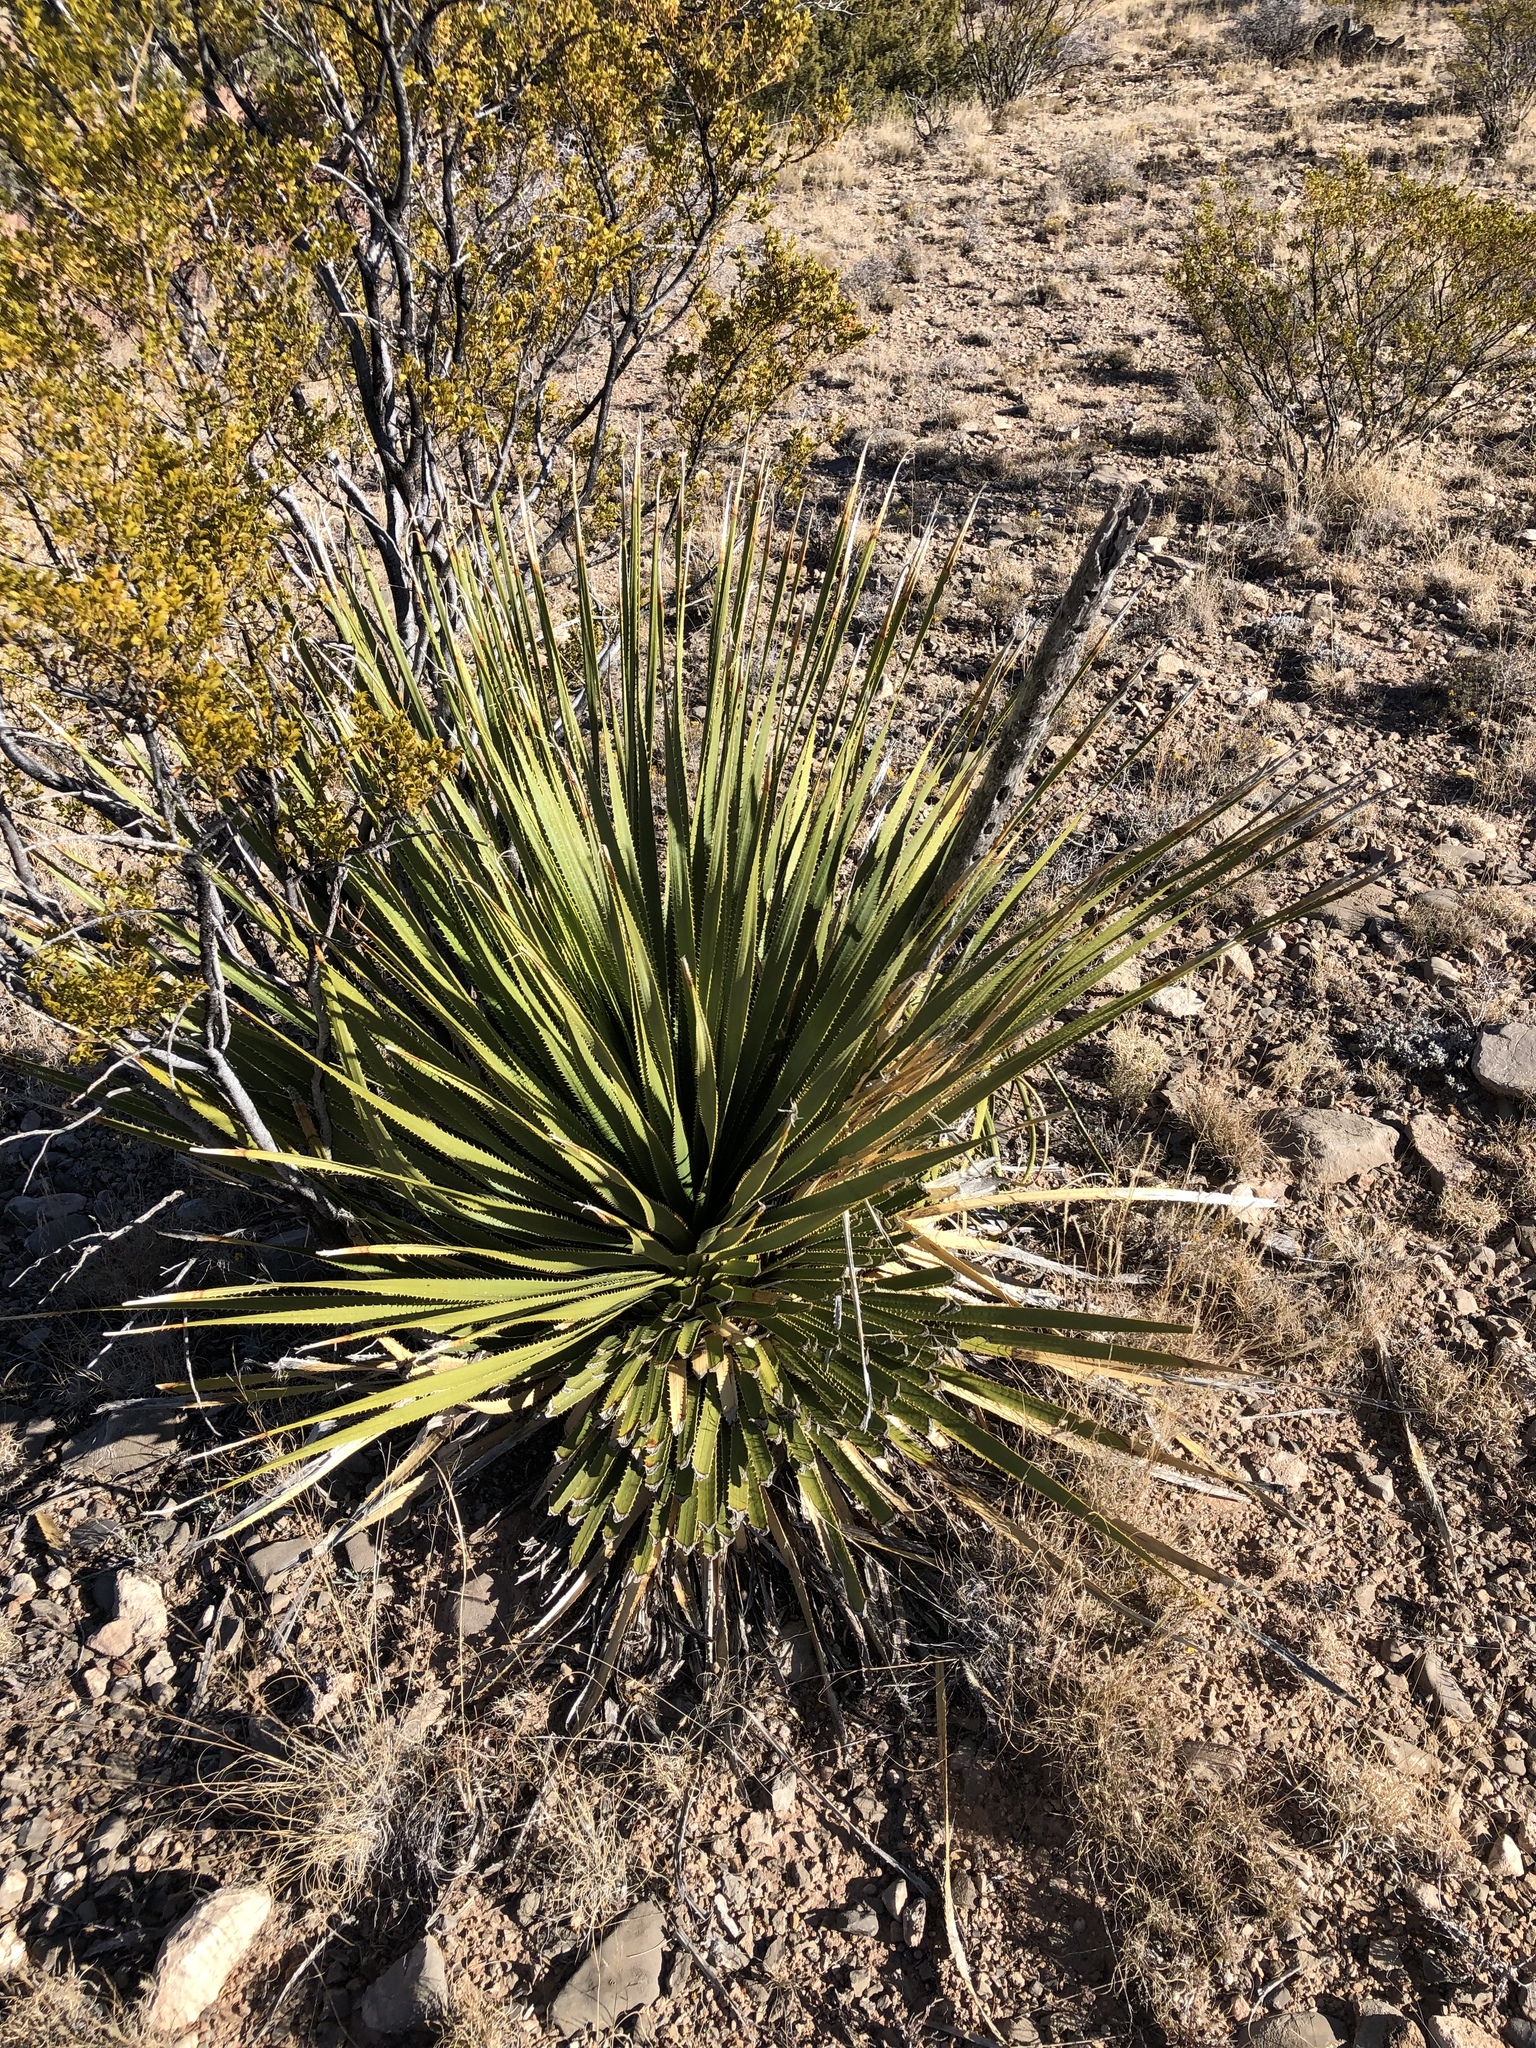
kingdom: Plantae
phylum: Tracheophyta
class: Liliopsida
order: Asparagales
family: Asparagaceae
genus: Dasylirion
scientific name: Dasylirion wheeleri
